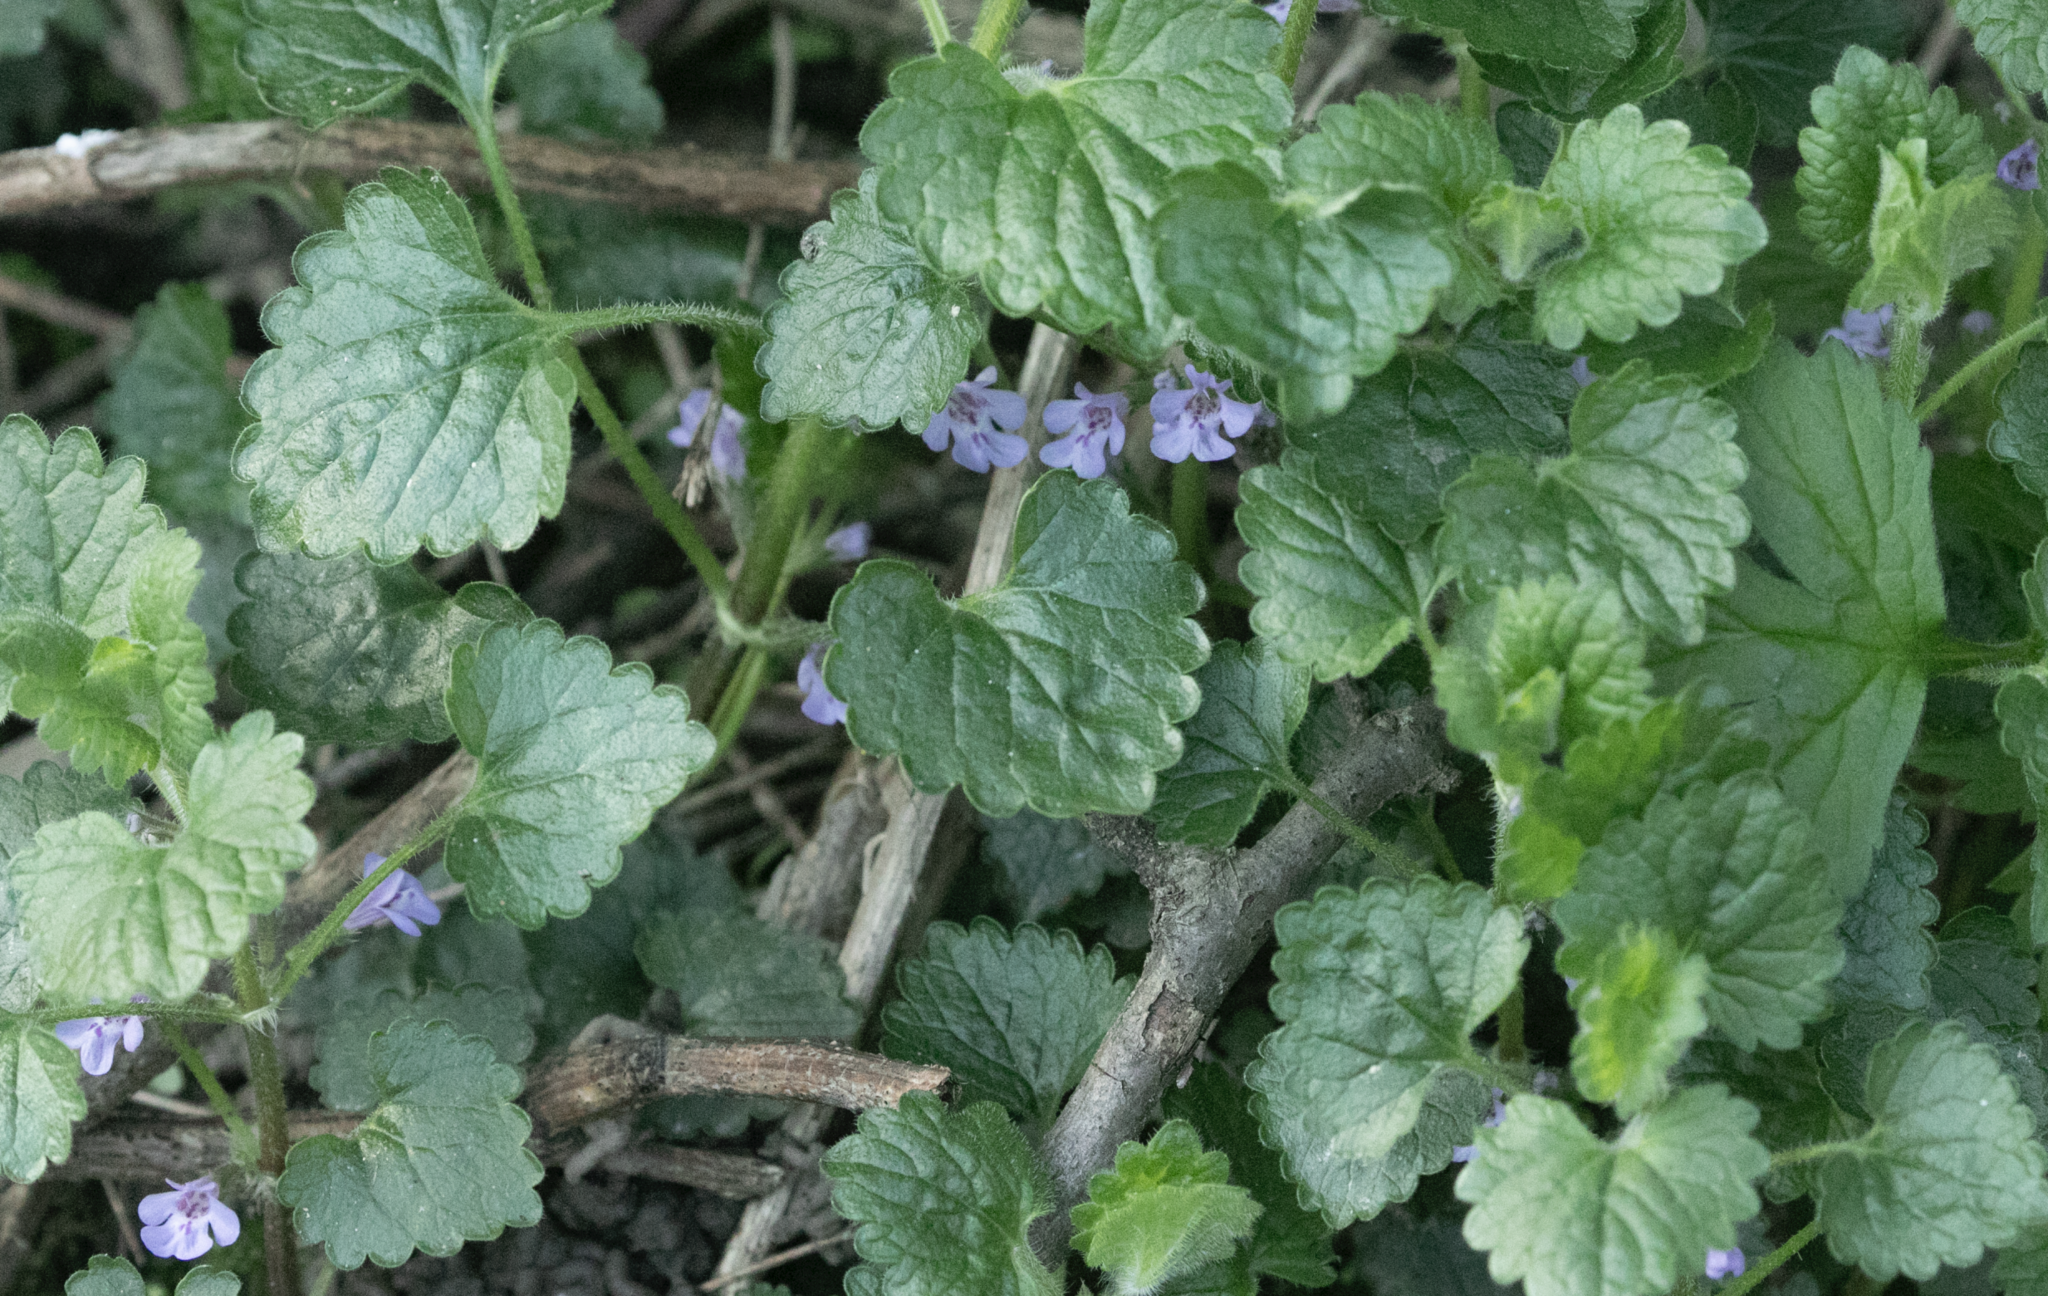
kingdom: Plantae
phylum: Tracheophyta
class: Magnoliopsida
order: Lamiales
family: Lamiaceae
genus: Glechoma
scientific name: Glechoma hederacea
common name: Ground ivy
